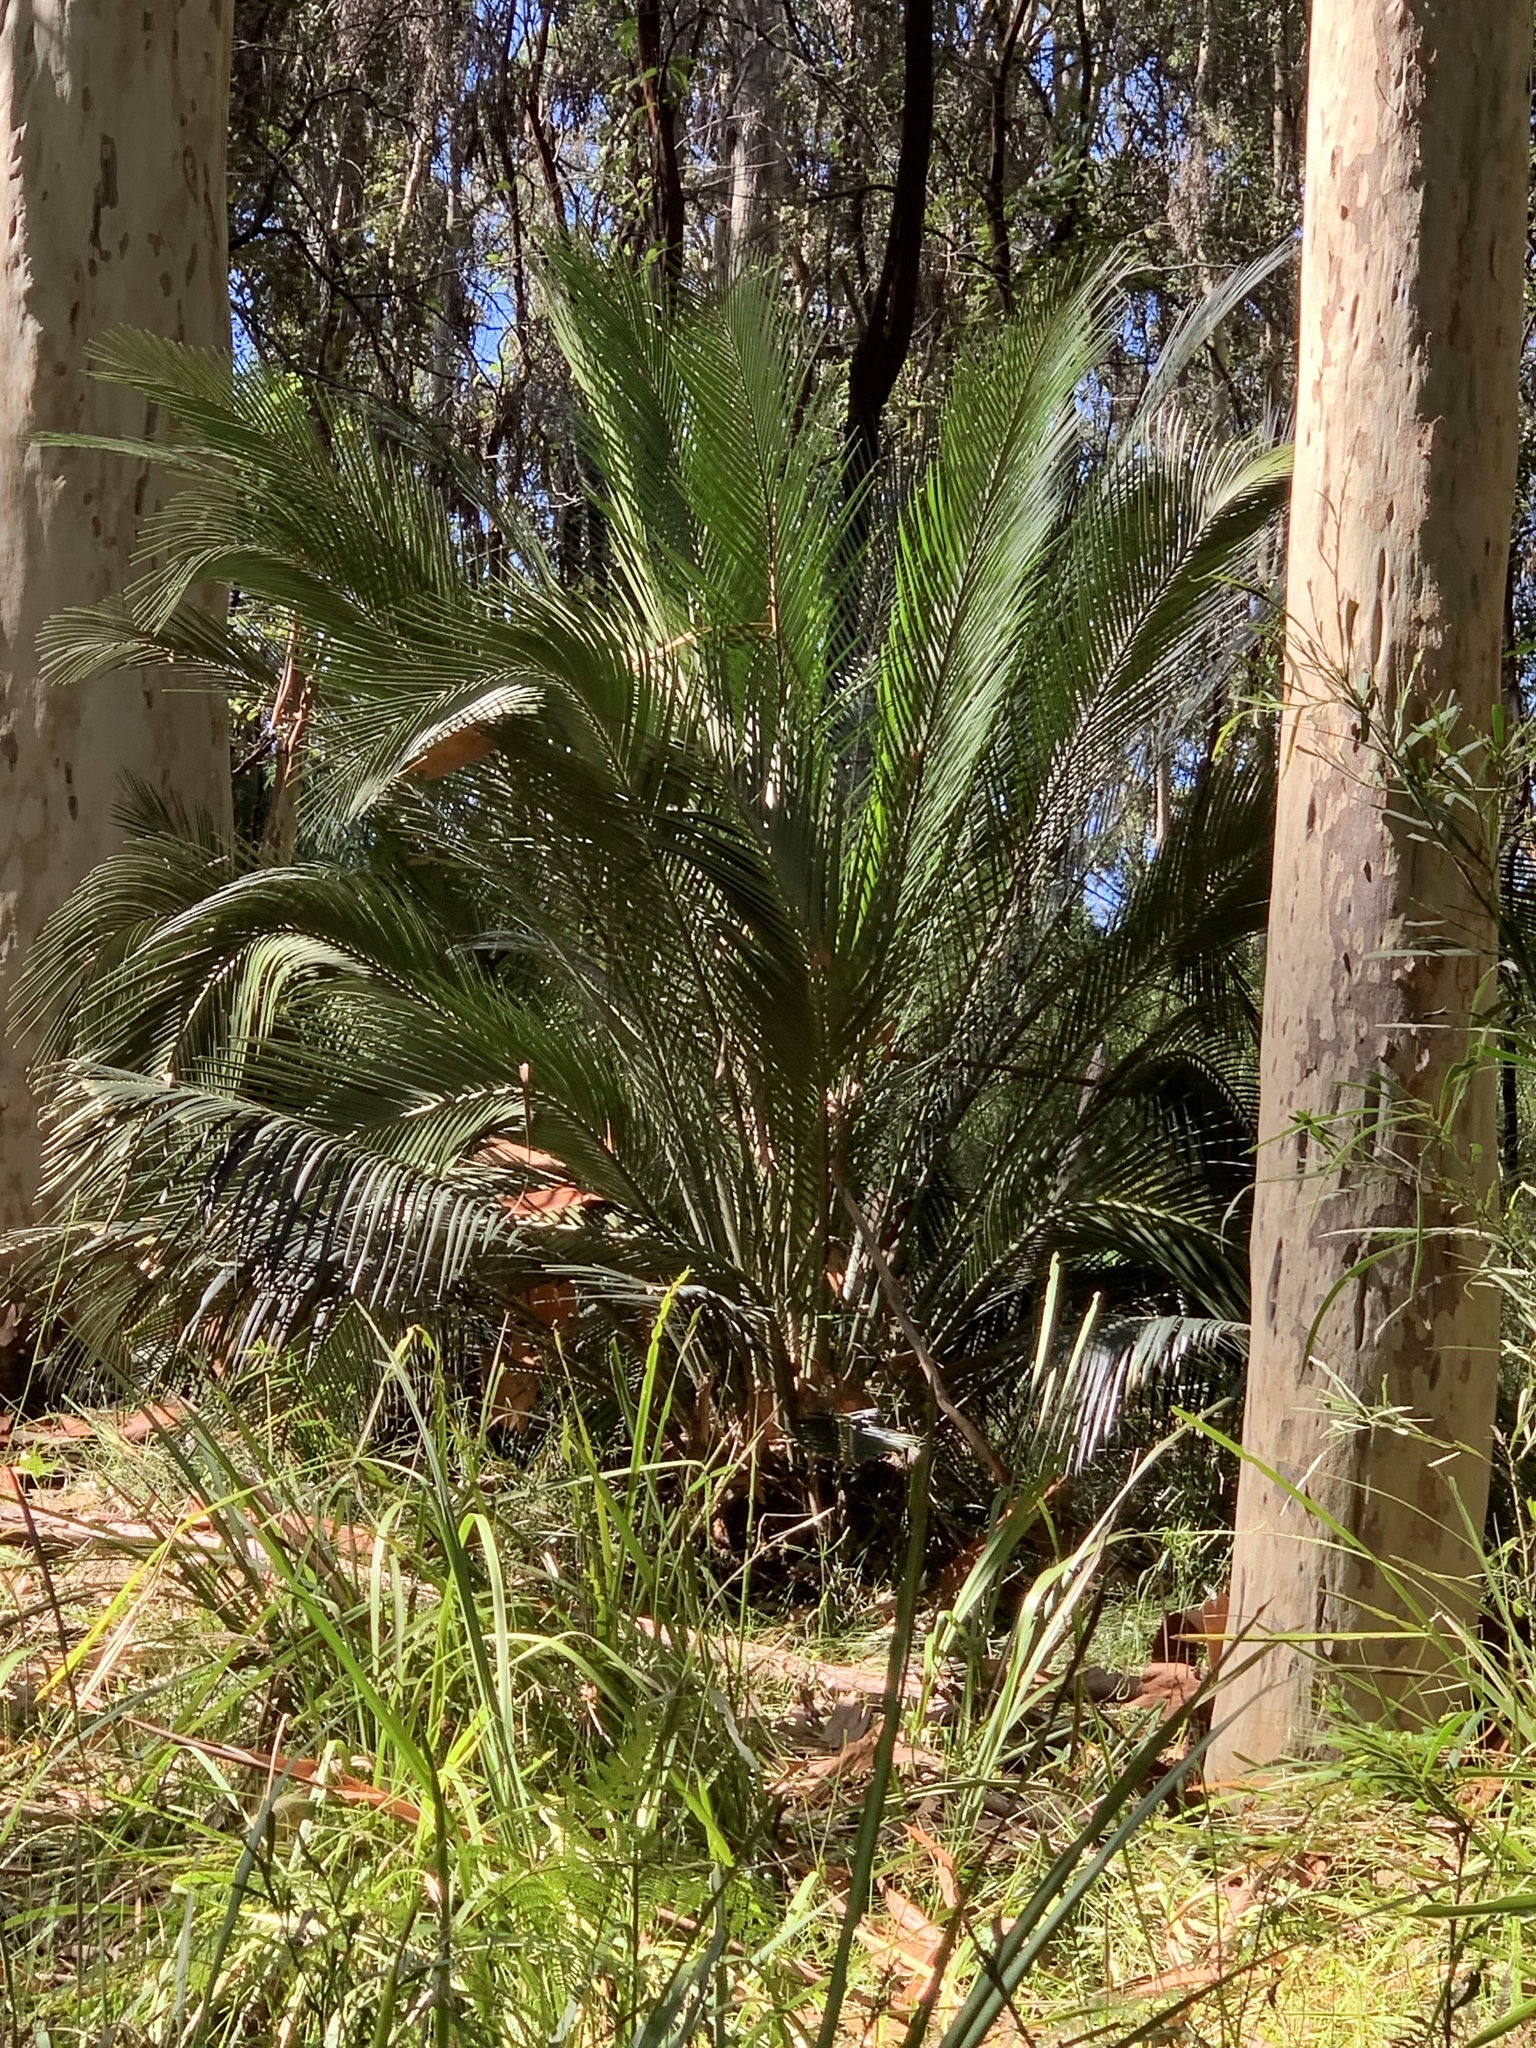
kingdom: Plantae
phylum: Tracheophyta
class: Cycadopsida
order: Cycadales
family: Zamiaceae
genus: Macrozamia
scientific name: Macrozamia communis
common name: Burrawong
